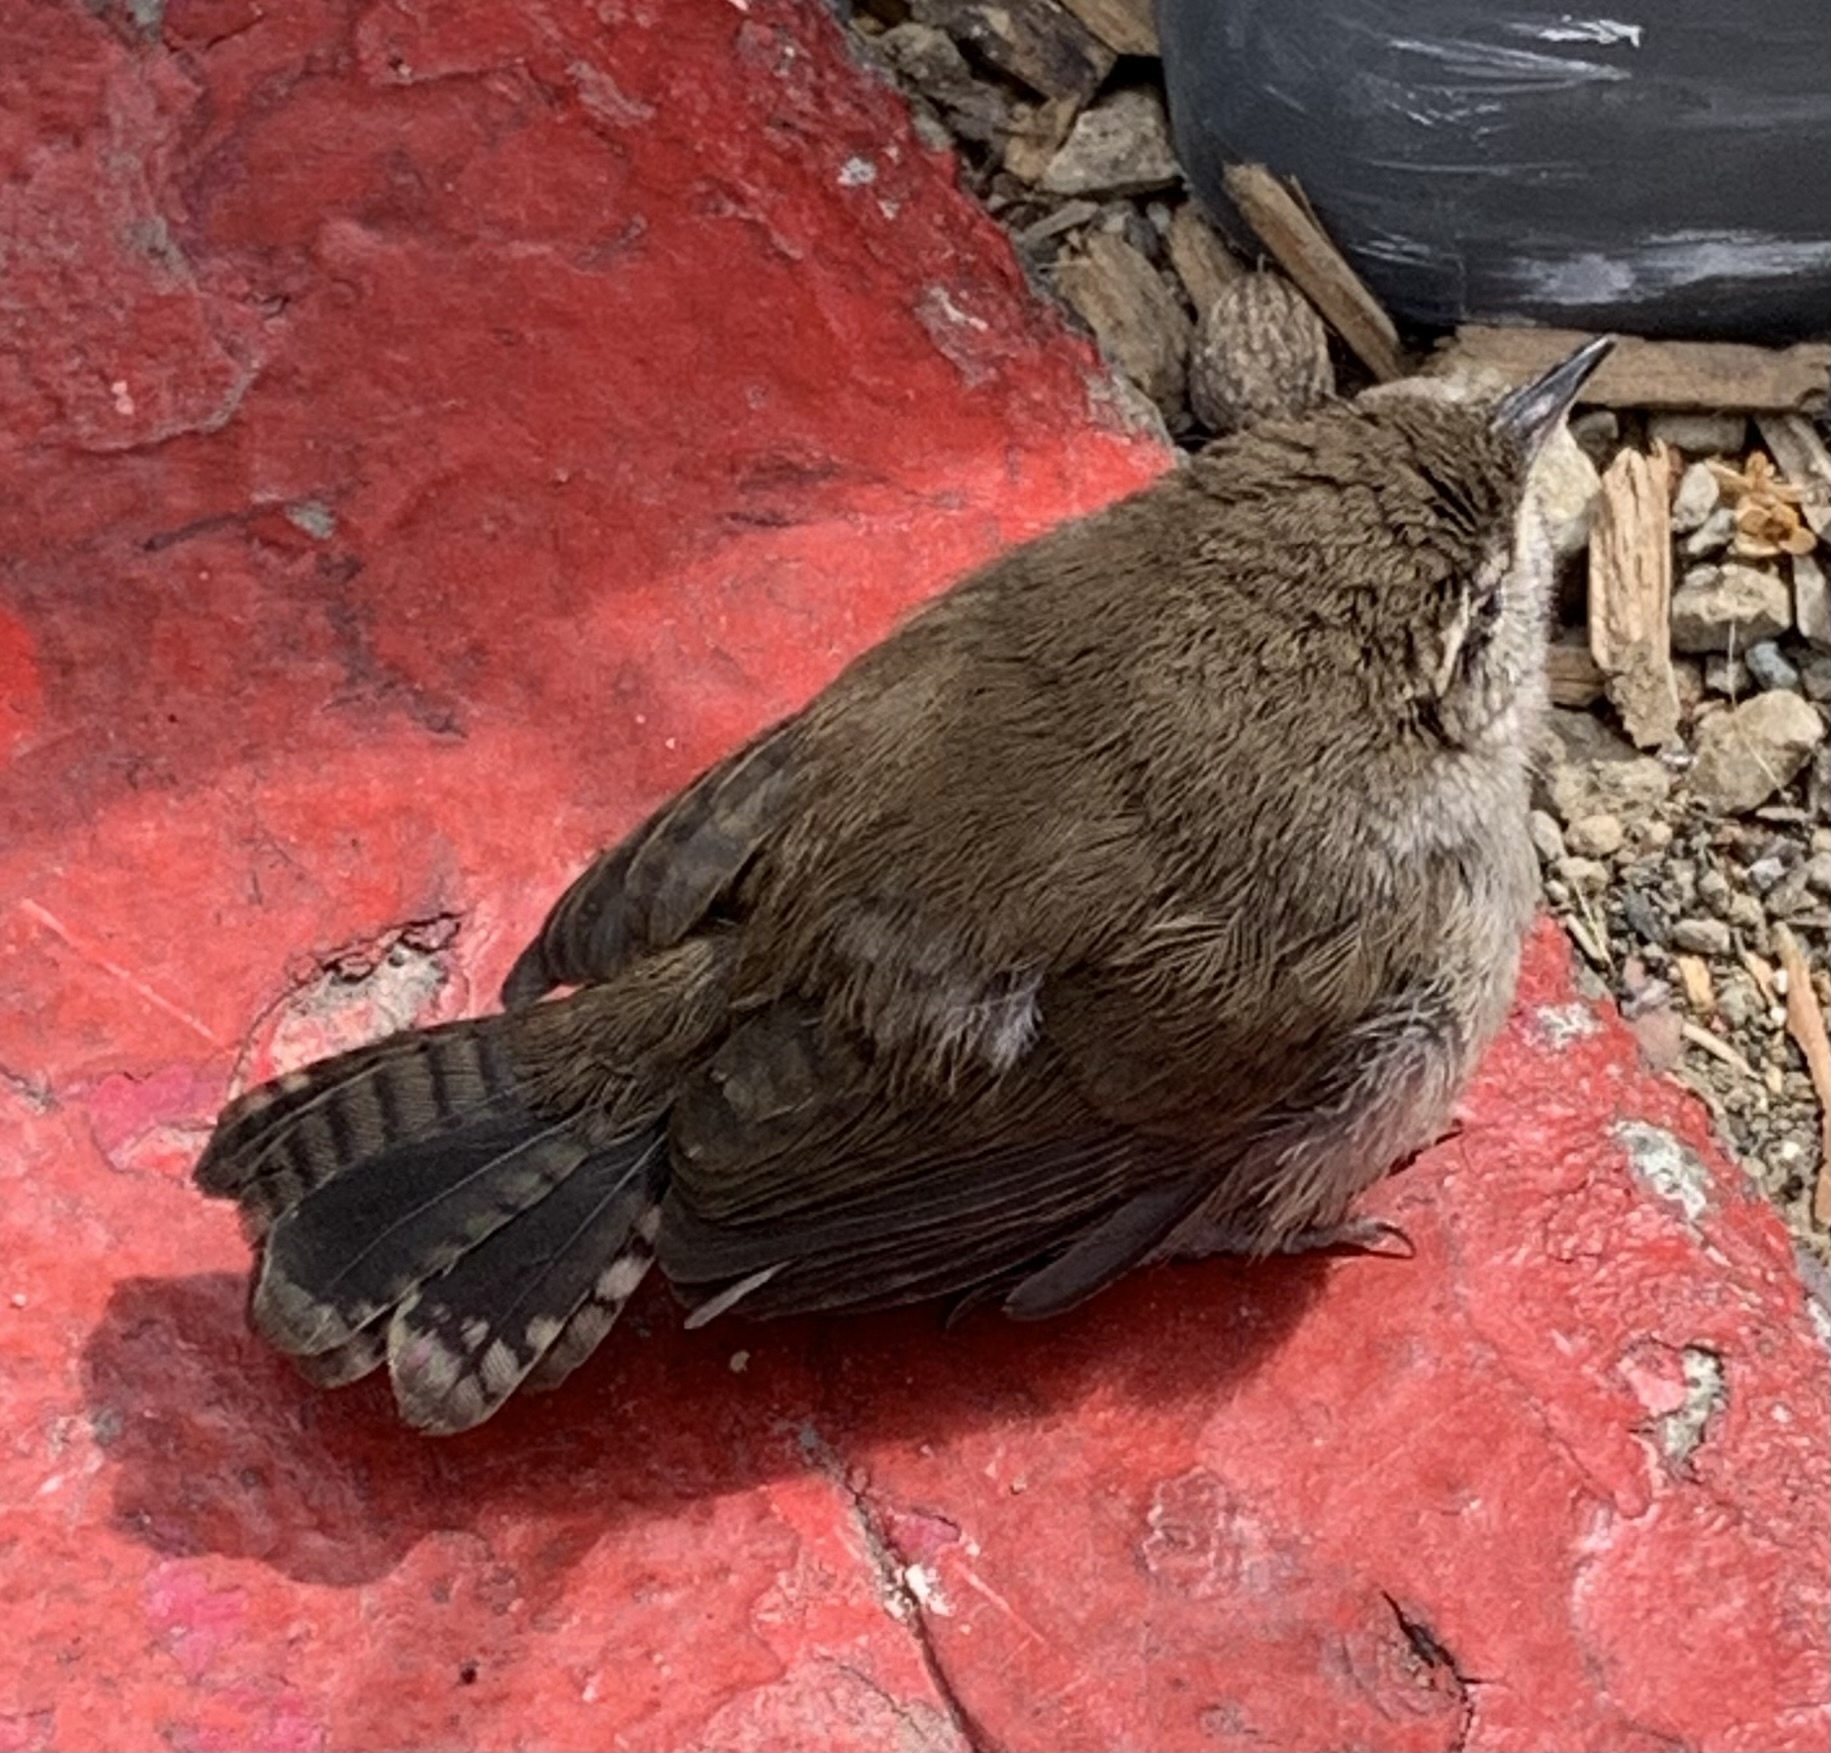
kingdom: Animalia
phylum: Chordata
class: Aves
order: Passeriformes
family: Troglodytidae
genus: Thryomanes
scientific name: Thryomanes bewickii
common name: Bewick's wren
